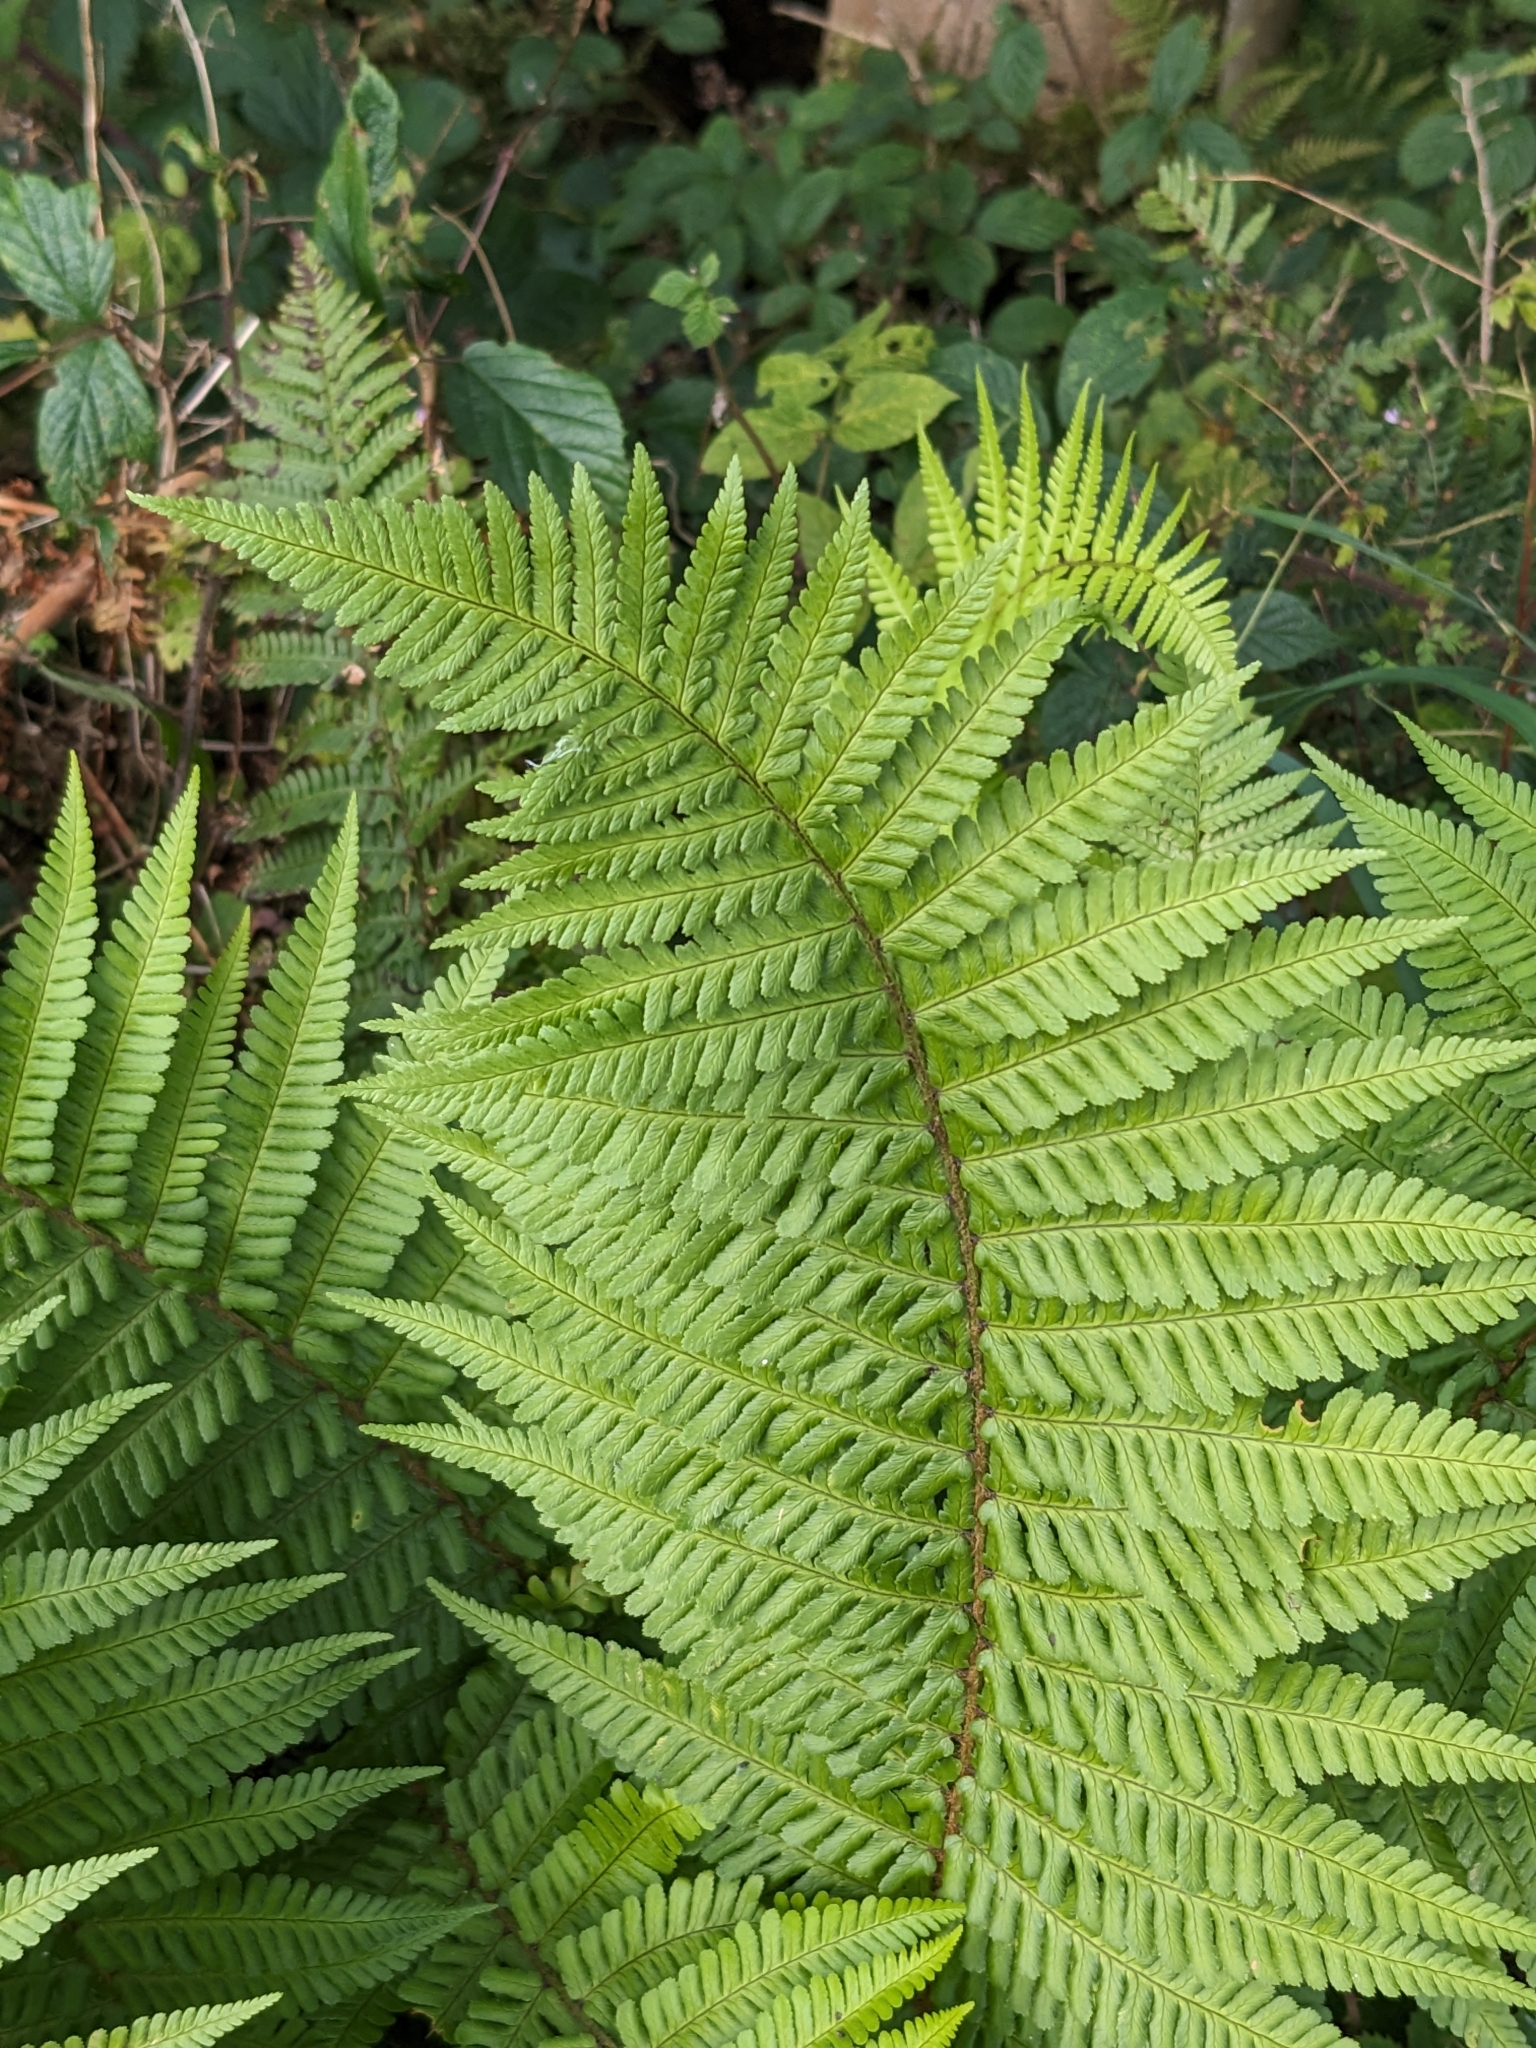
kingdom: Plantae
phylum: Tracheophyta
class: Polypodiopsida
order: Polypodiales
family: Dryopteridaceae
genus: Dryopteris
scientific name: Dryopteris filix-mas
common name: Male fern
